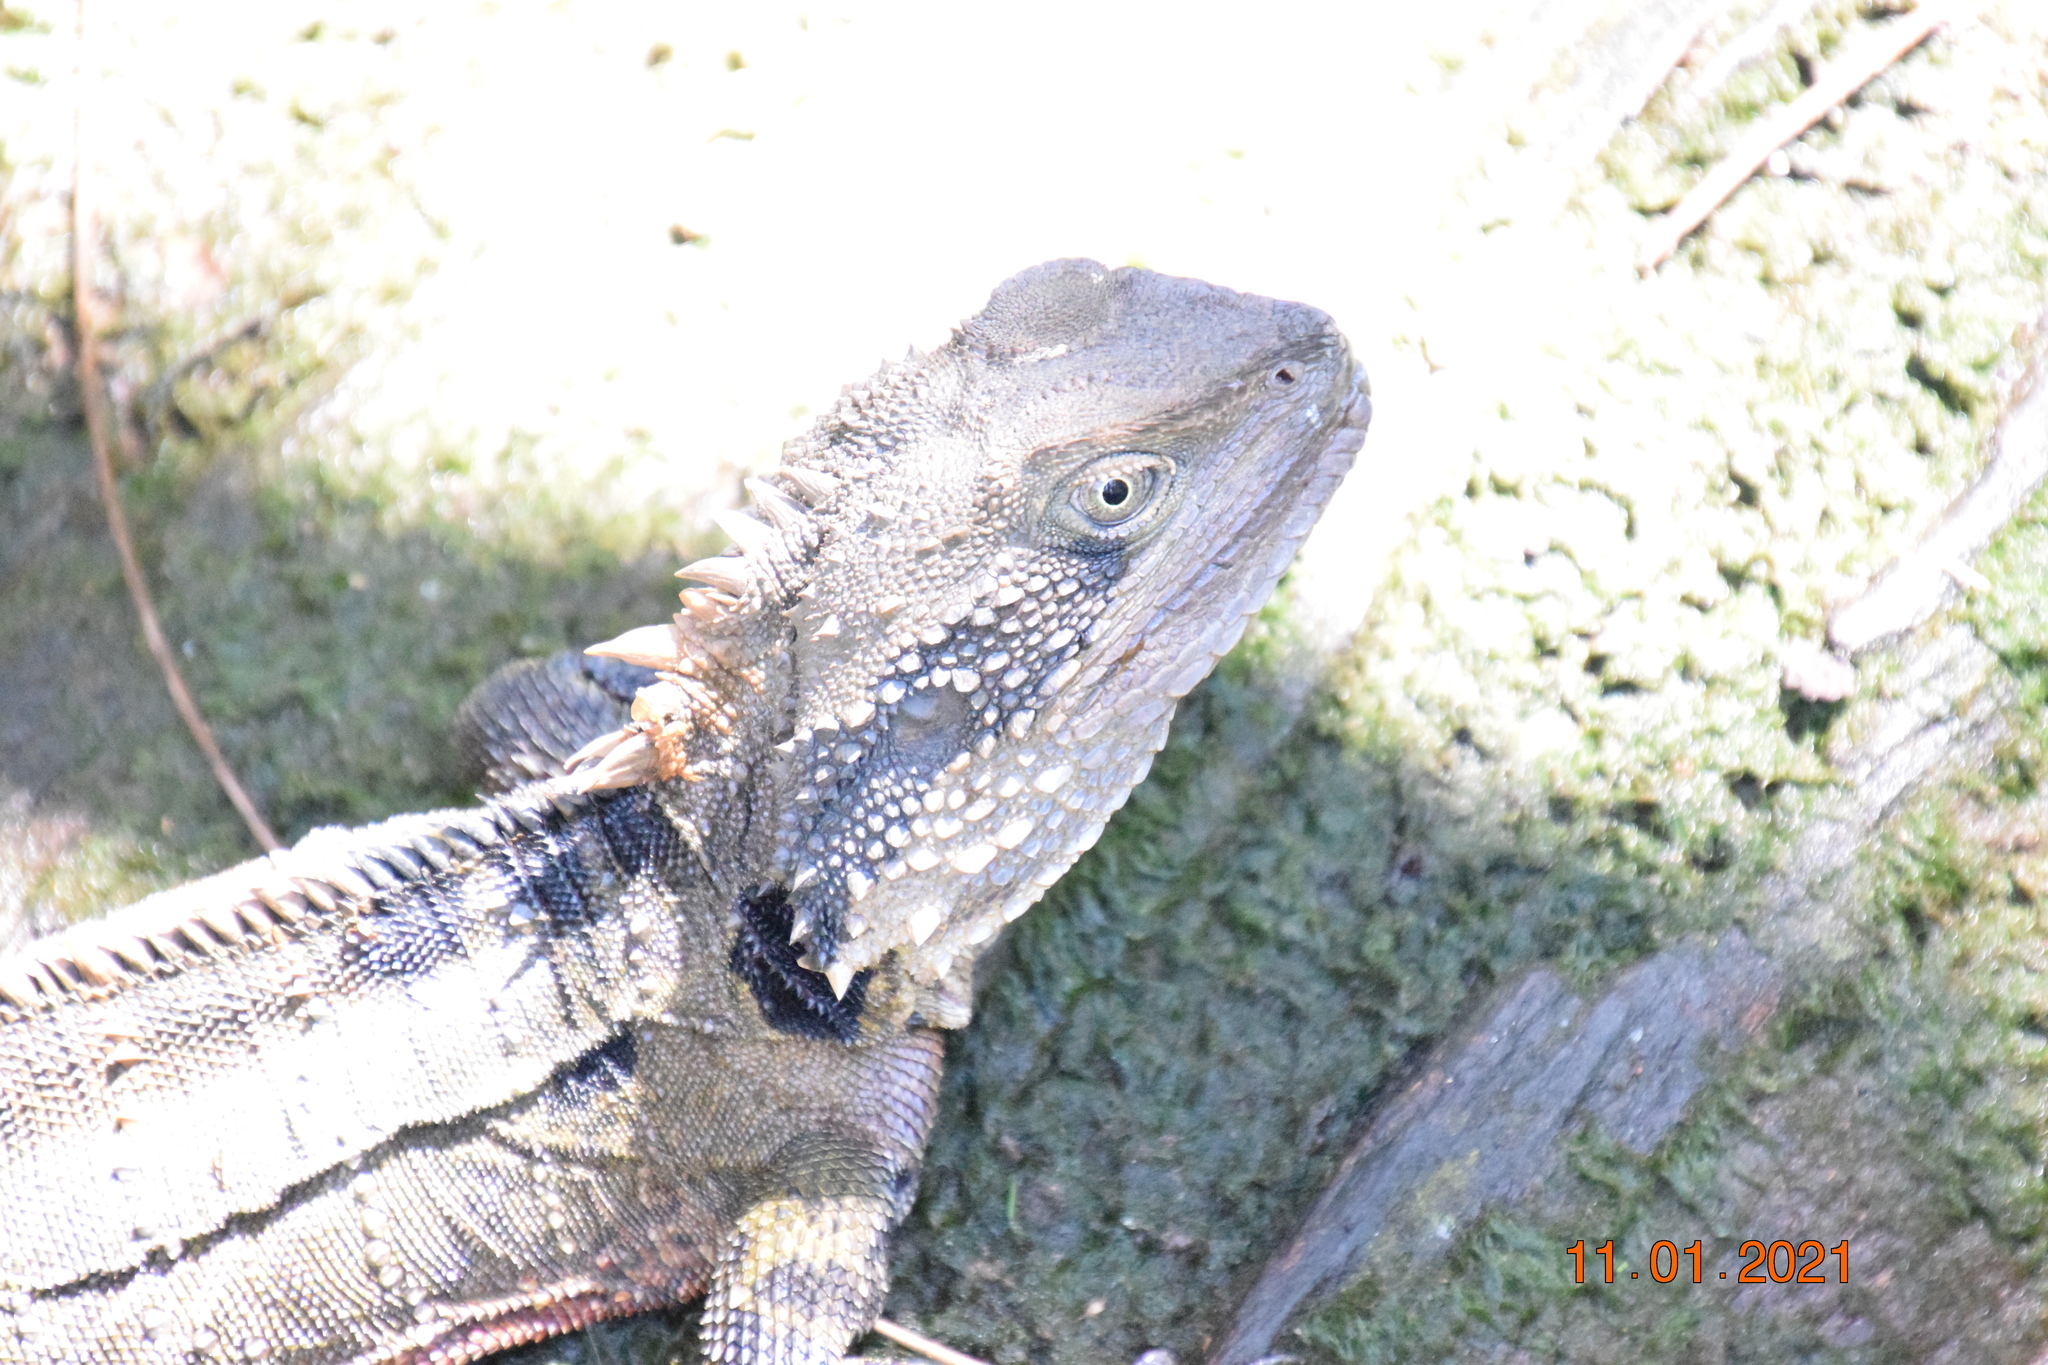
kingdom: Animalia
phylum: Chordata
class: Squamata
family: Agamidae
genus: Intellagama
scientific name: Intellagama lesueurii
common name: Eastern water dragon
